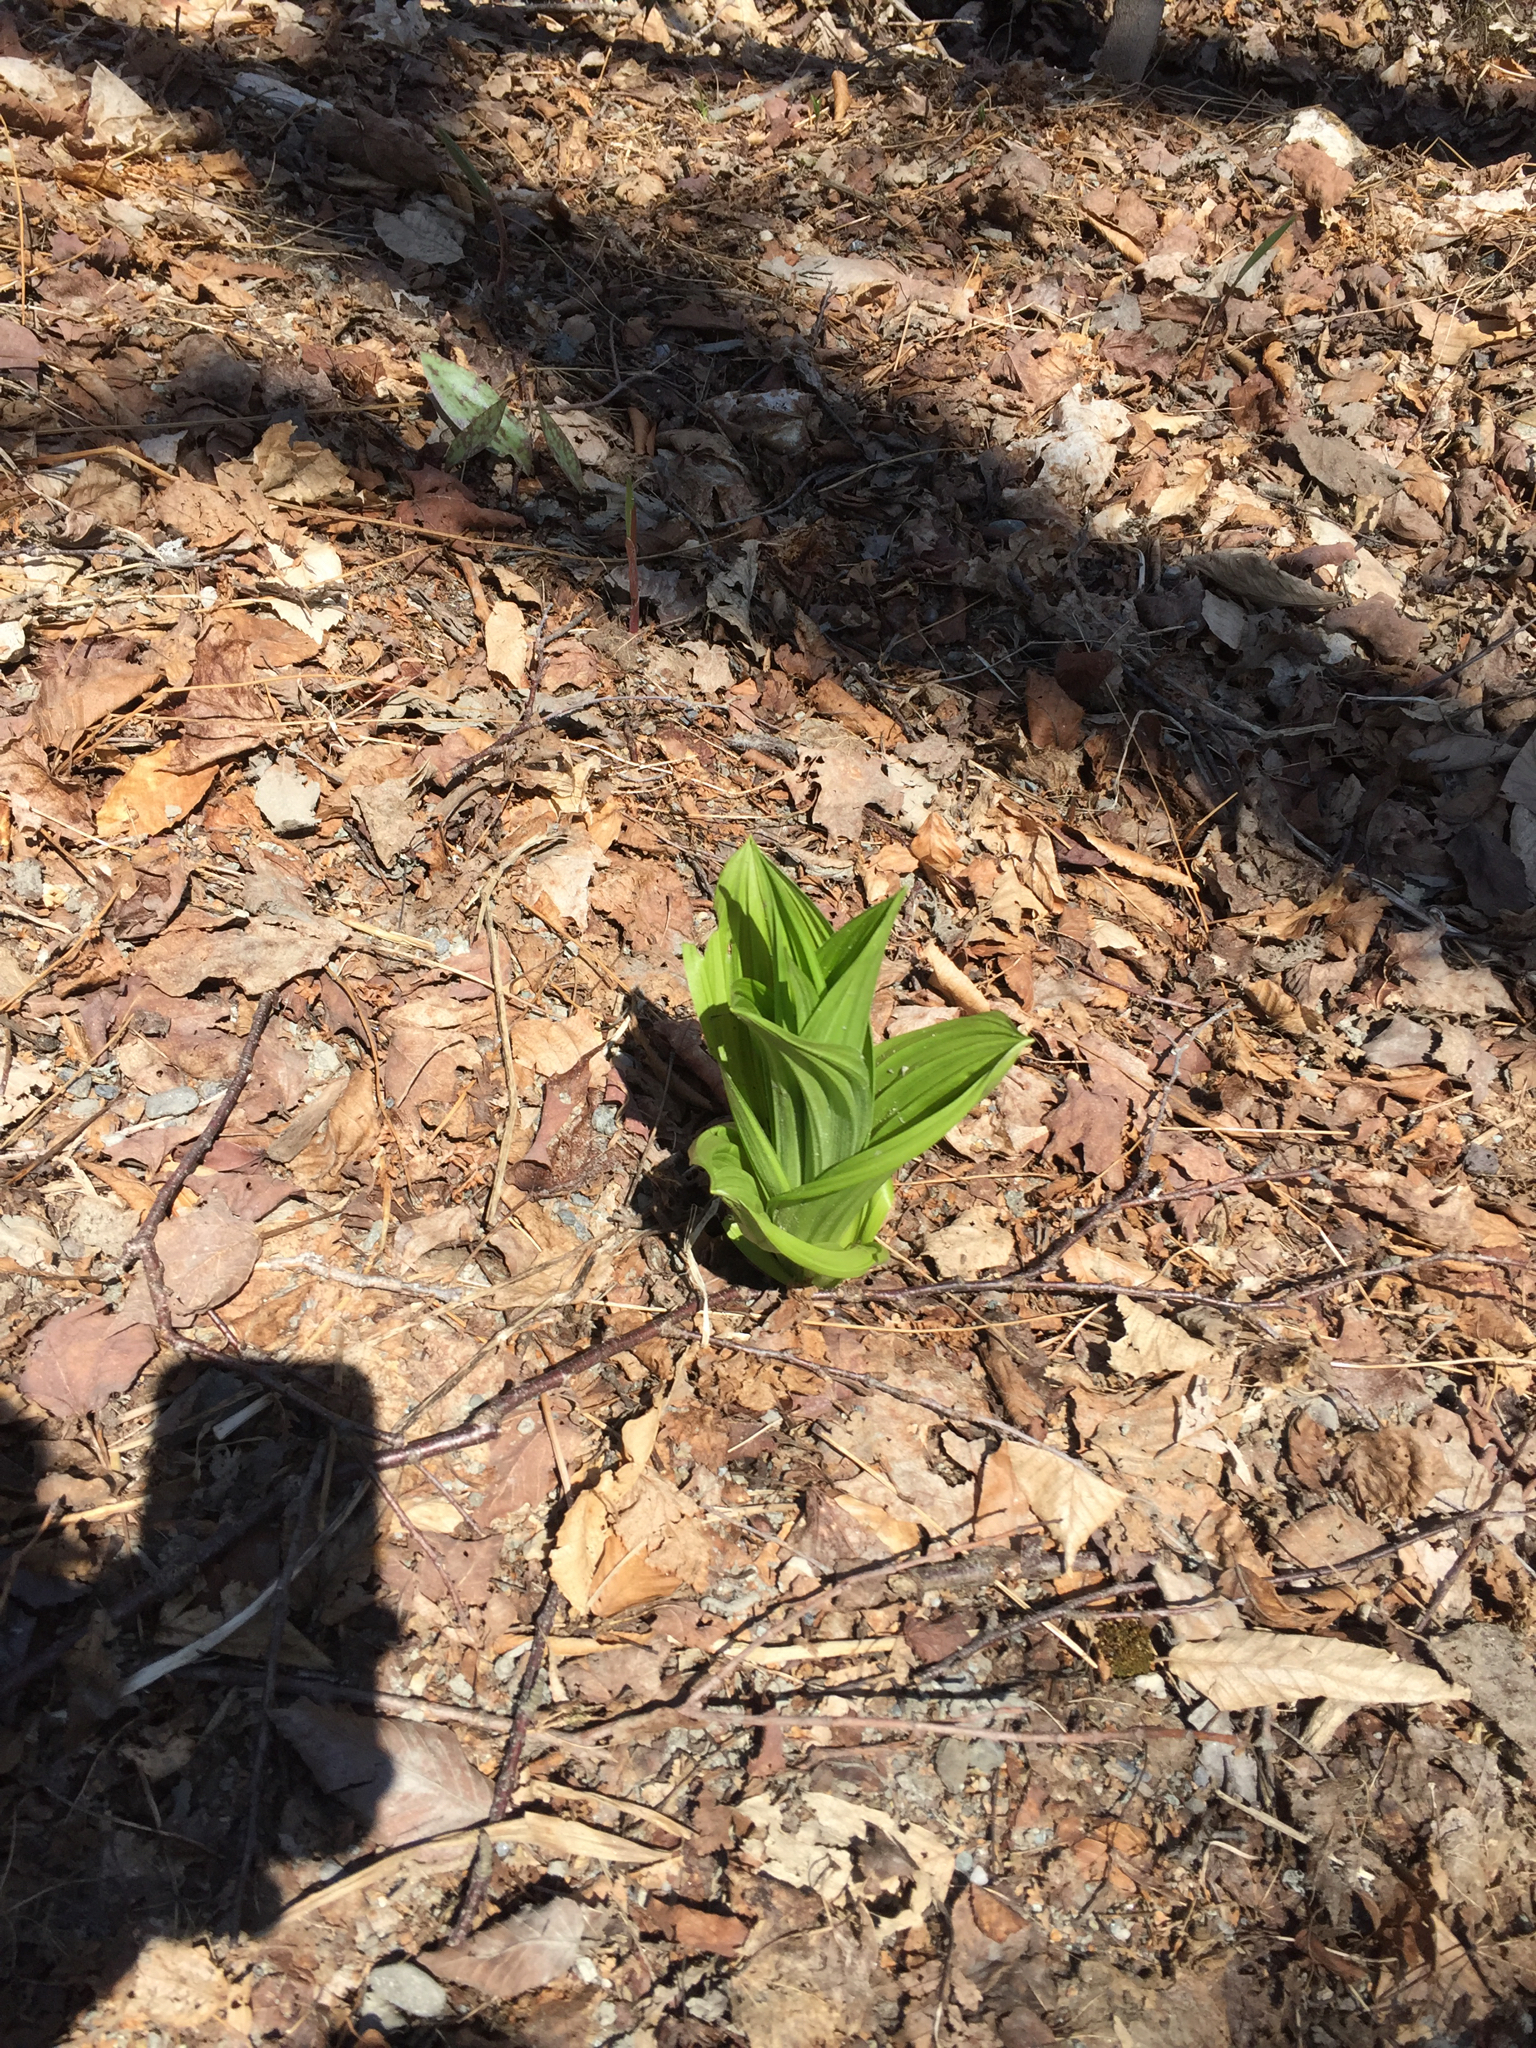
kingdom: Plantae
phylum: Tracheophyta
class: Liliopsida
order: Liliales
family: Melanthiaceae
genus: Veratrum
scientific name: Veratrum viride
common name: American false hellebore
